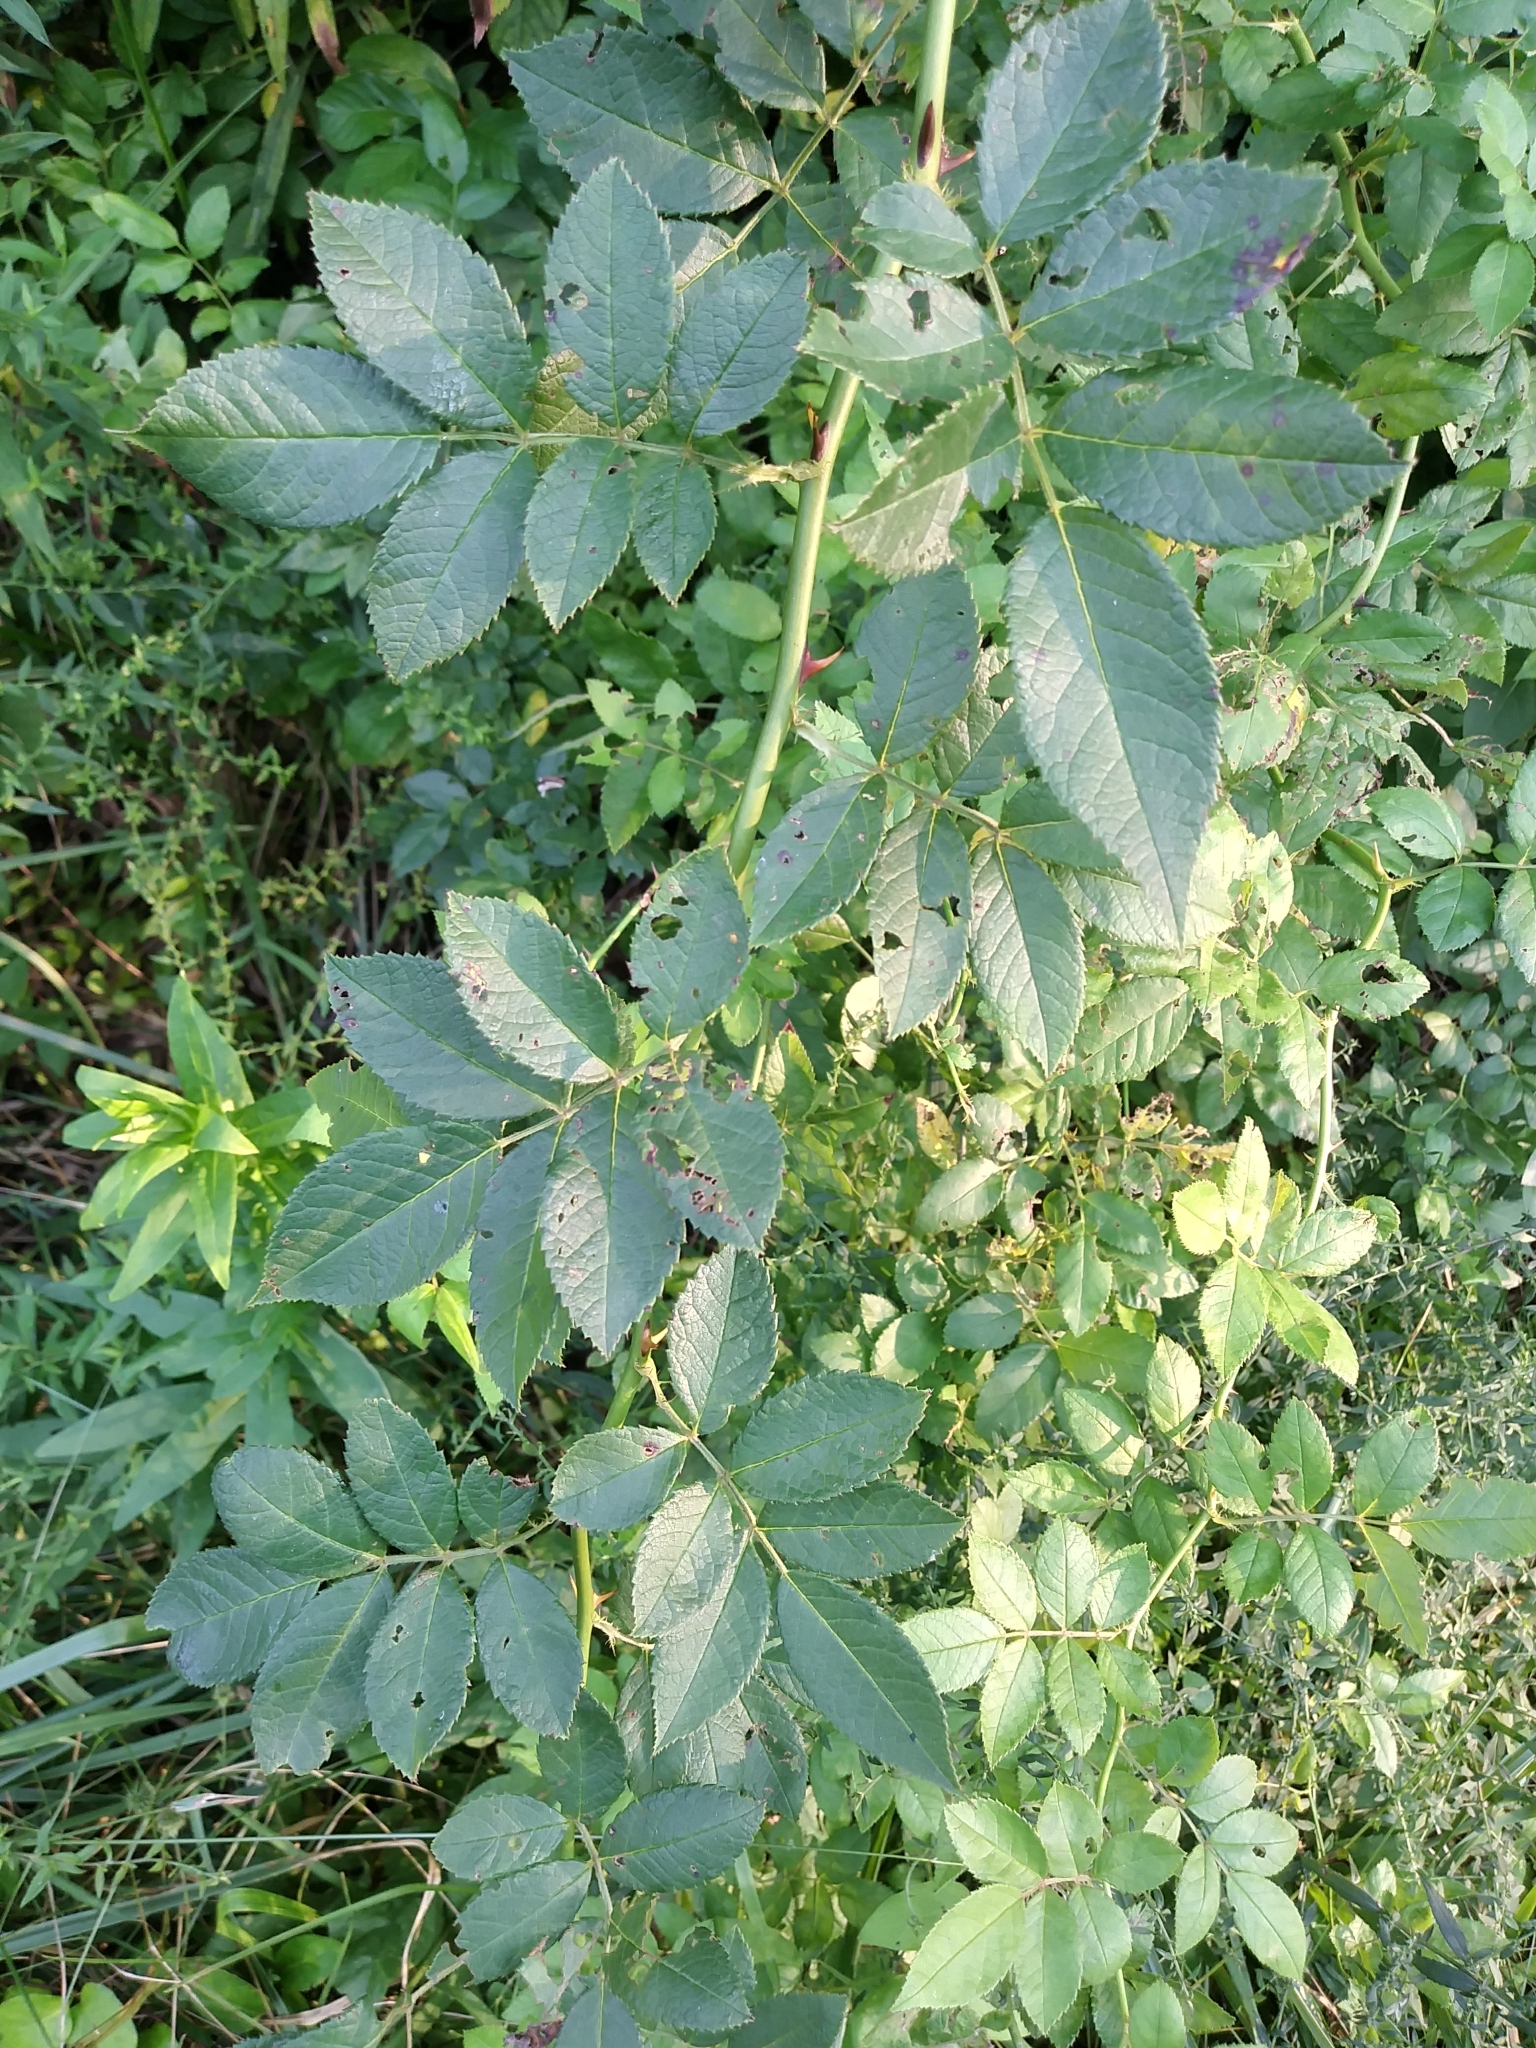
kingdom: Plantae
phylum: Tracheophyta
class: Magnoliopsida
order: Rosales
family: Rosaceae
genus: Rosa
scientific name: Rosa multiflora
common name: Multiflora rose
